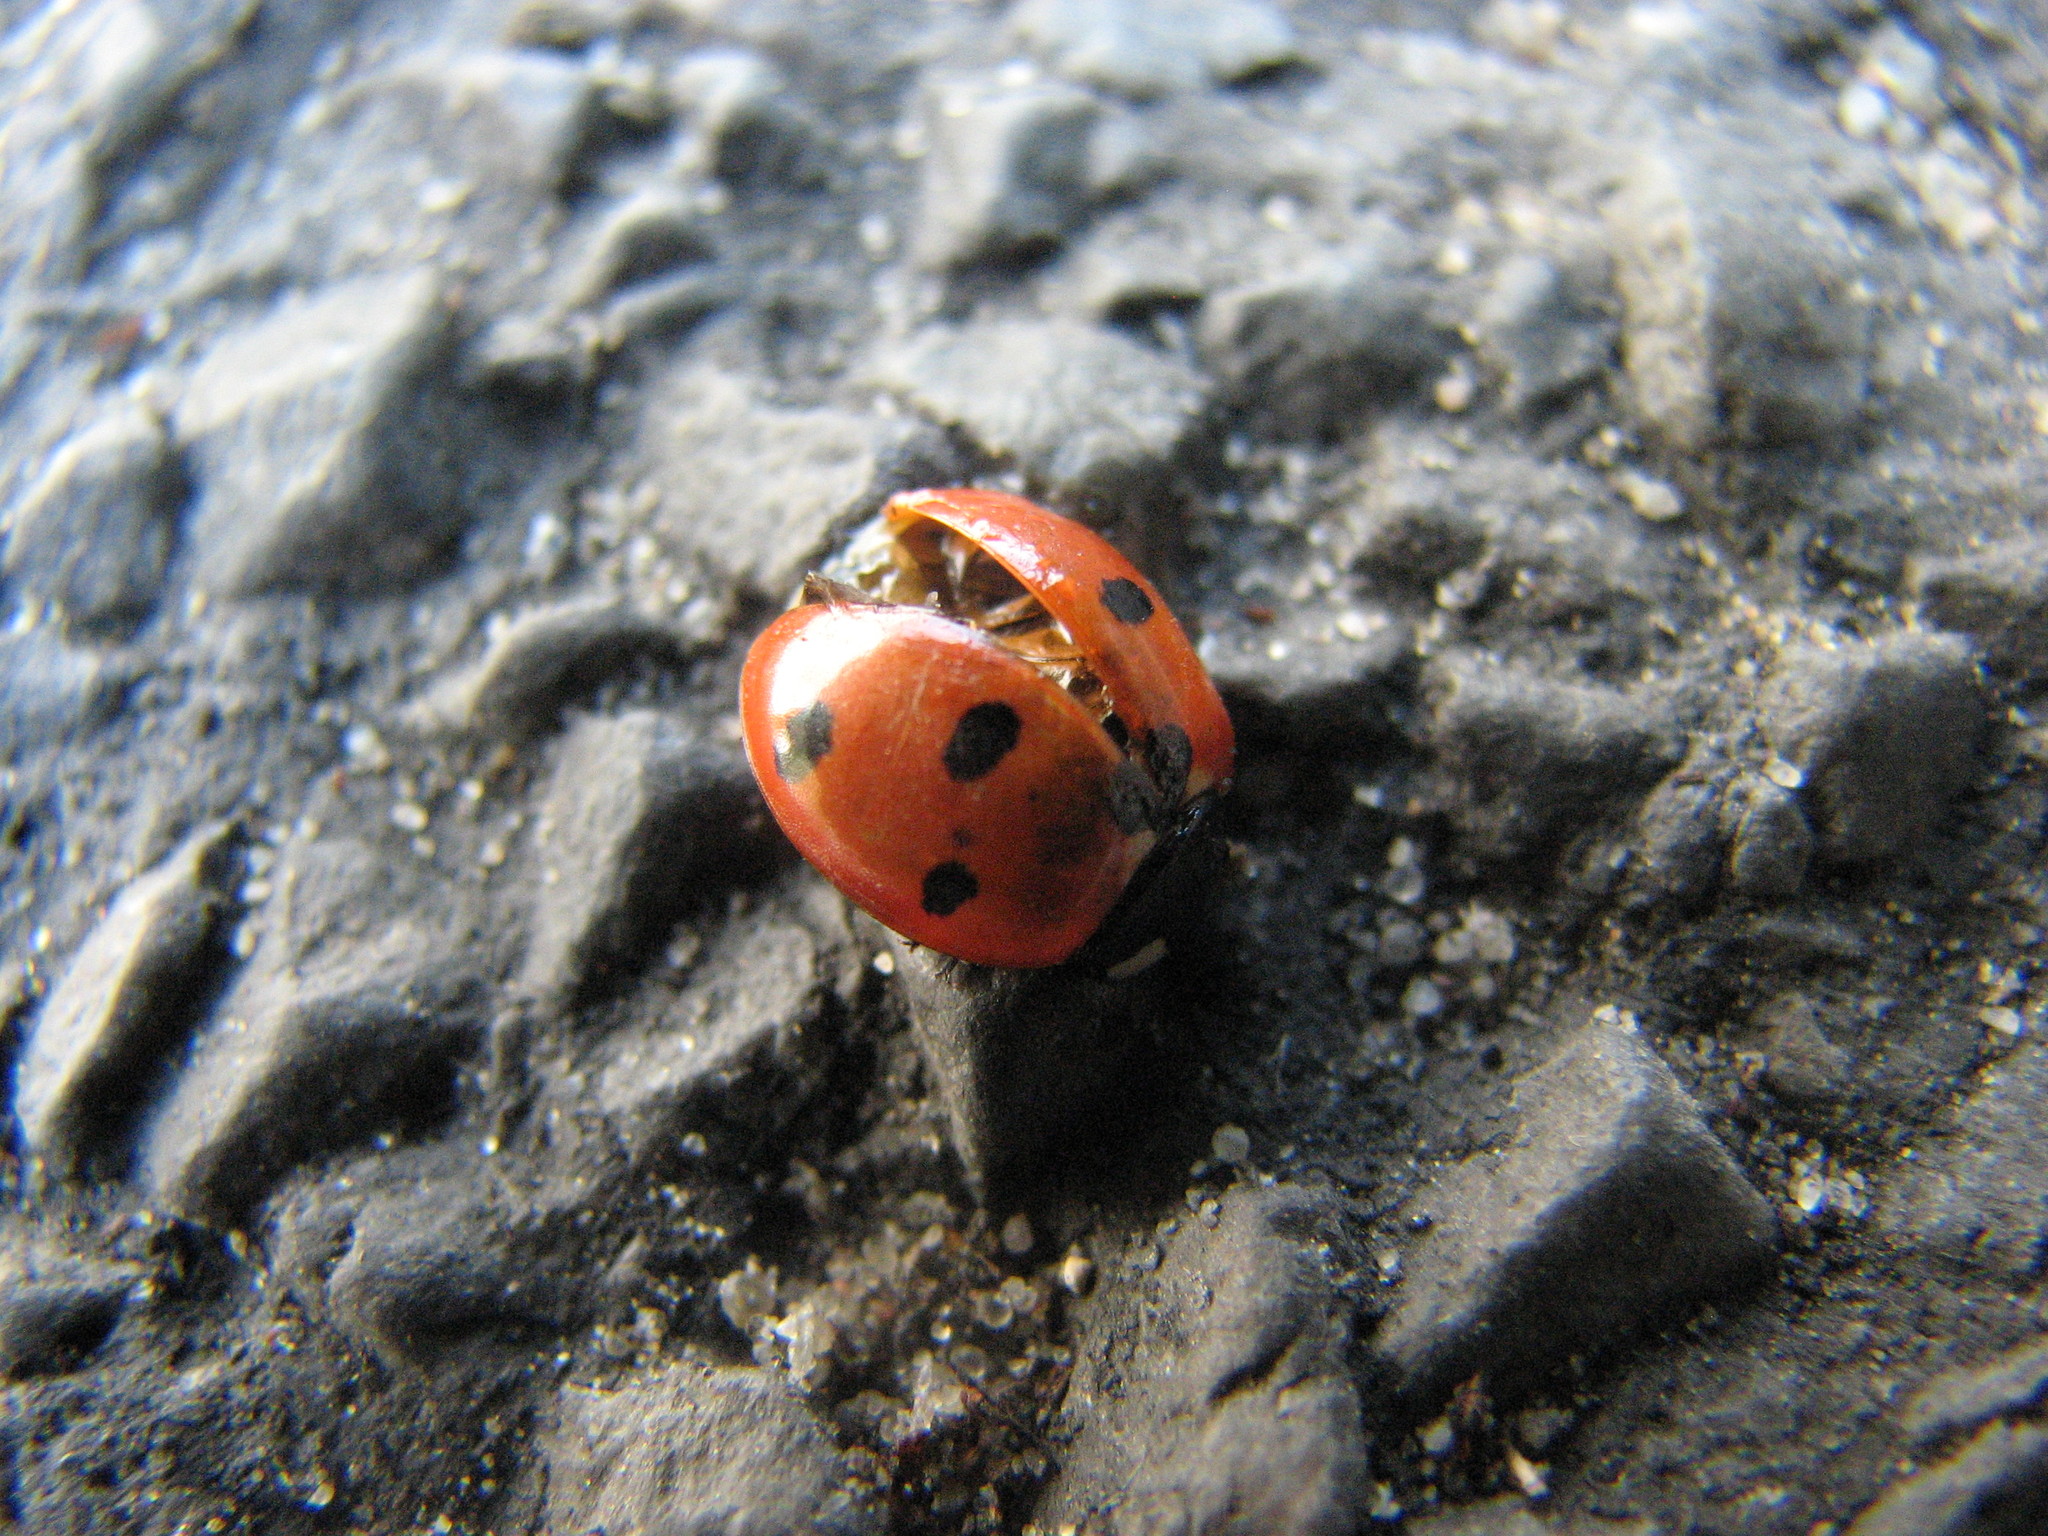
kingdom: Animalia
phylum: Arthropoda
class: Insecta
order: Coleoptera
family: Coccinellidae
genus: Coccinella
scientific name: Coccinella septempunctata
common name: Sevenspotted lady beetle
